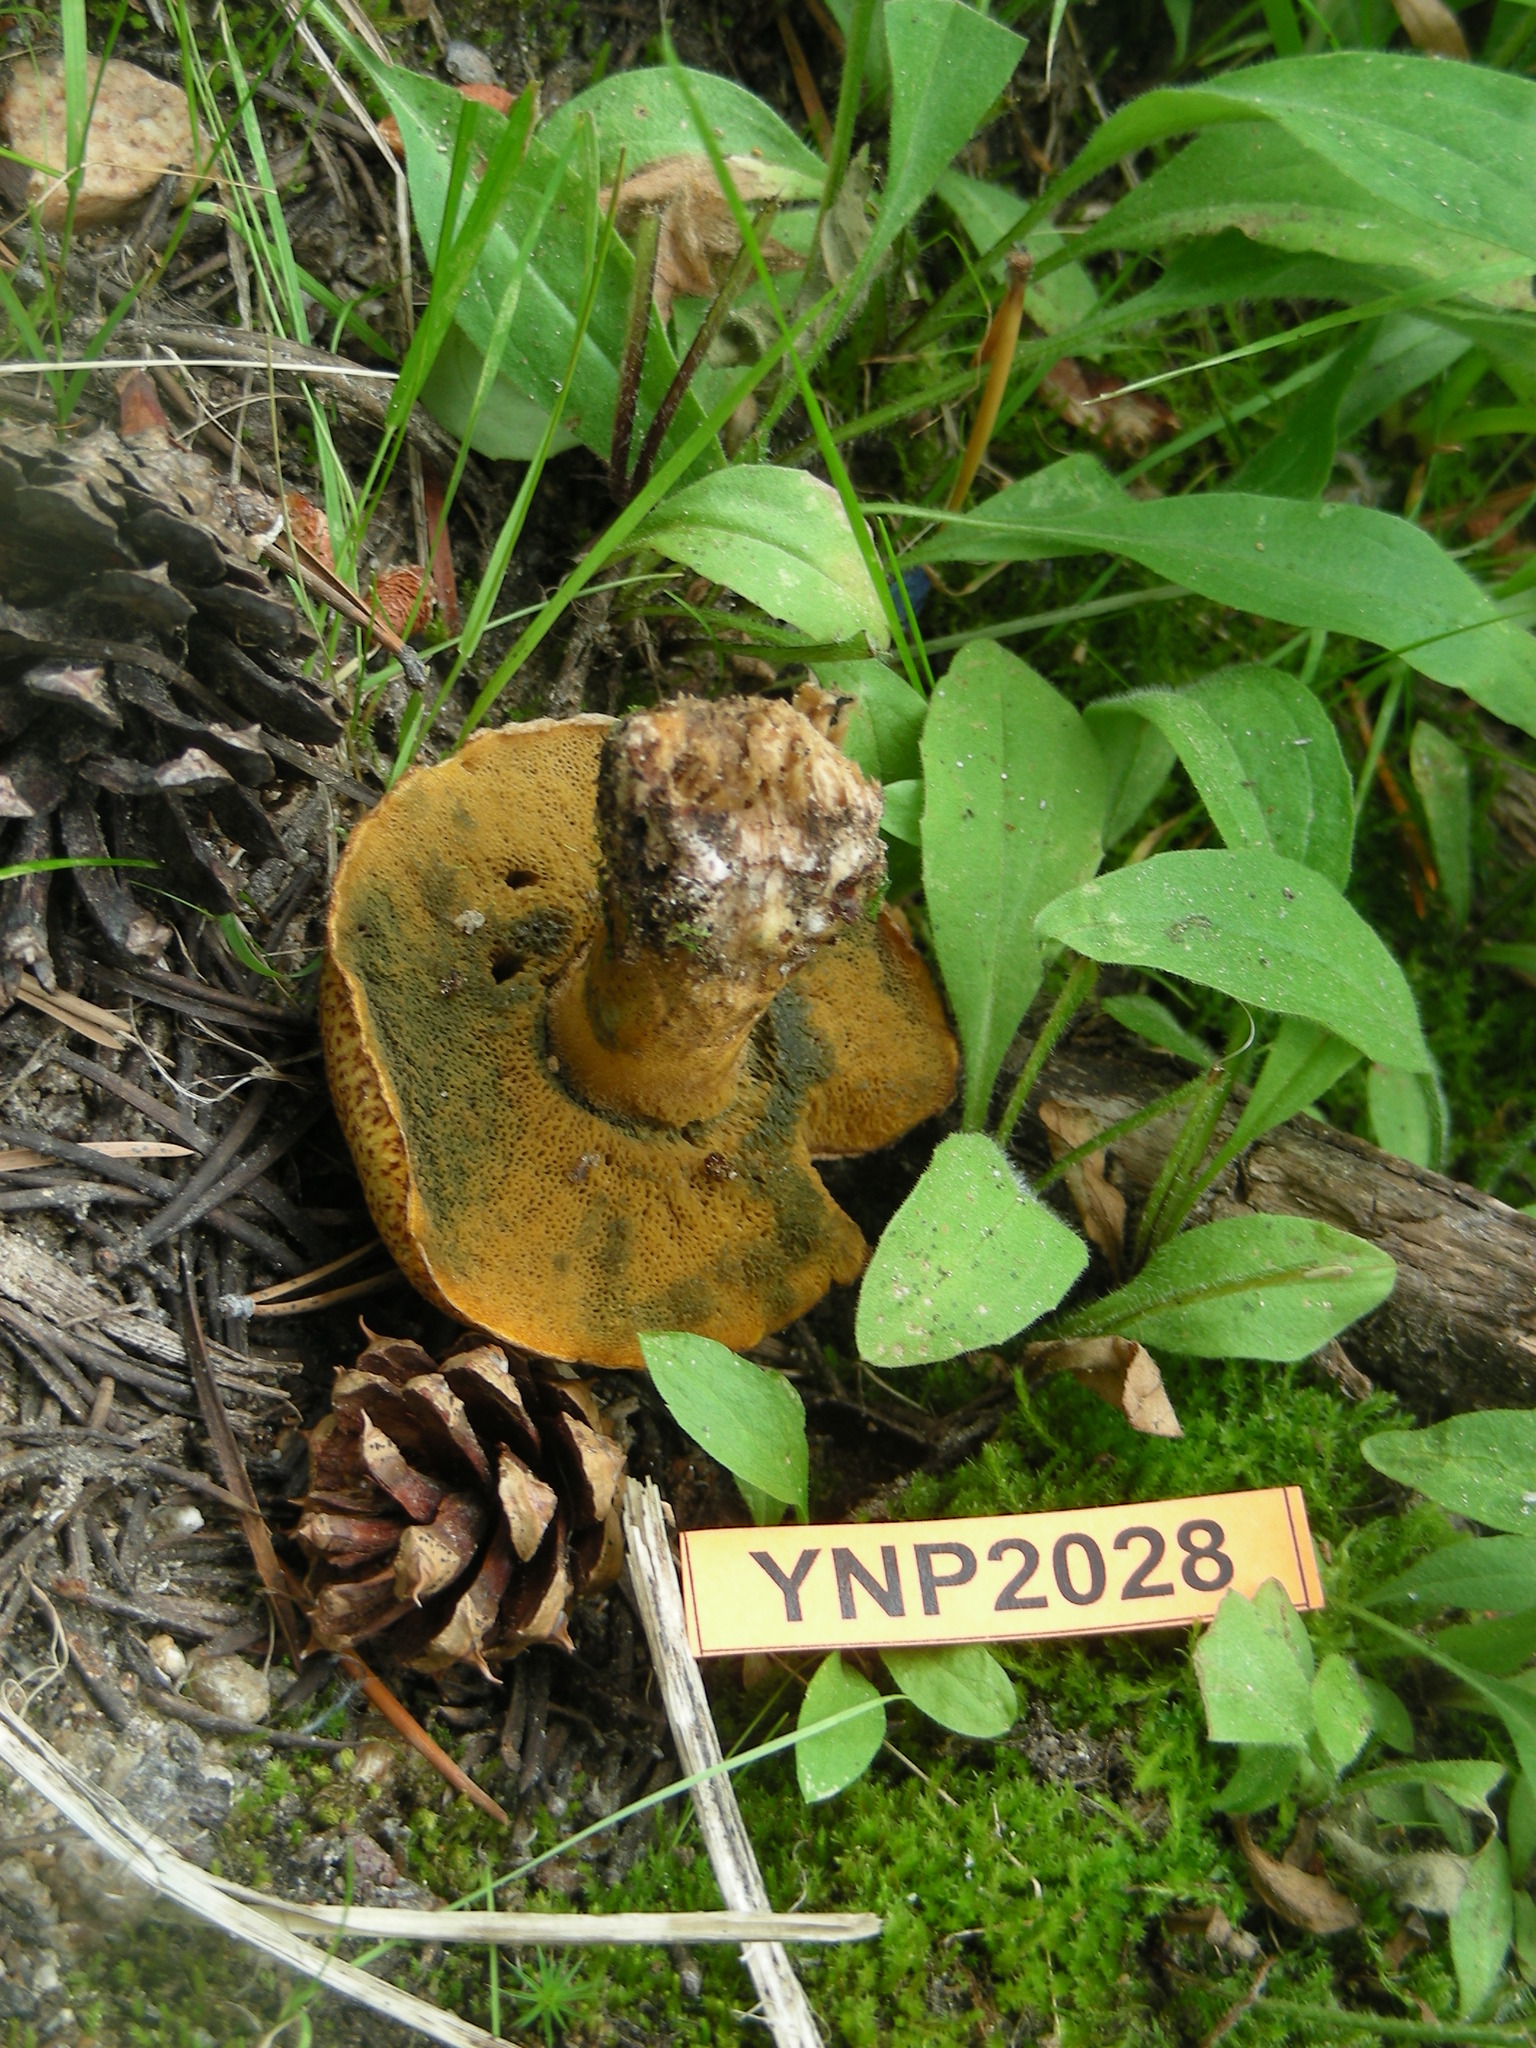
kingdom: Fungi
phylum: Basidiomycota
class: Agaricomycetes
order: Boletales
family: Suillaceae
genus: Suillus
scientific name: Suillus tomentosus
